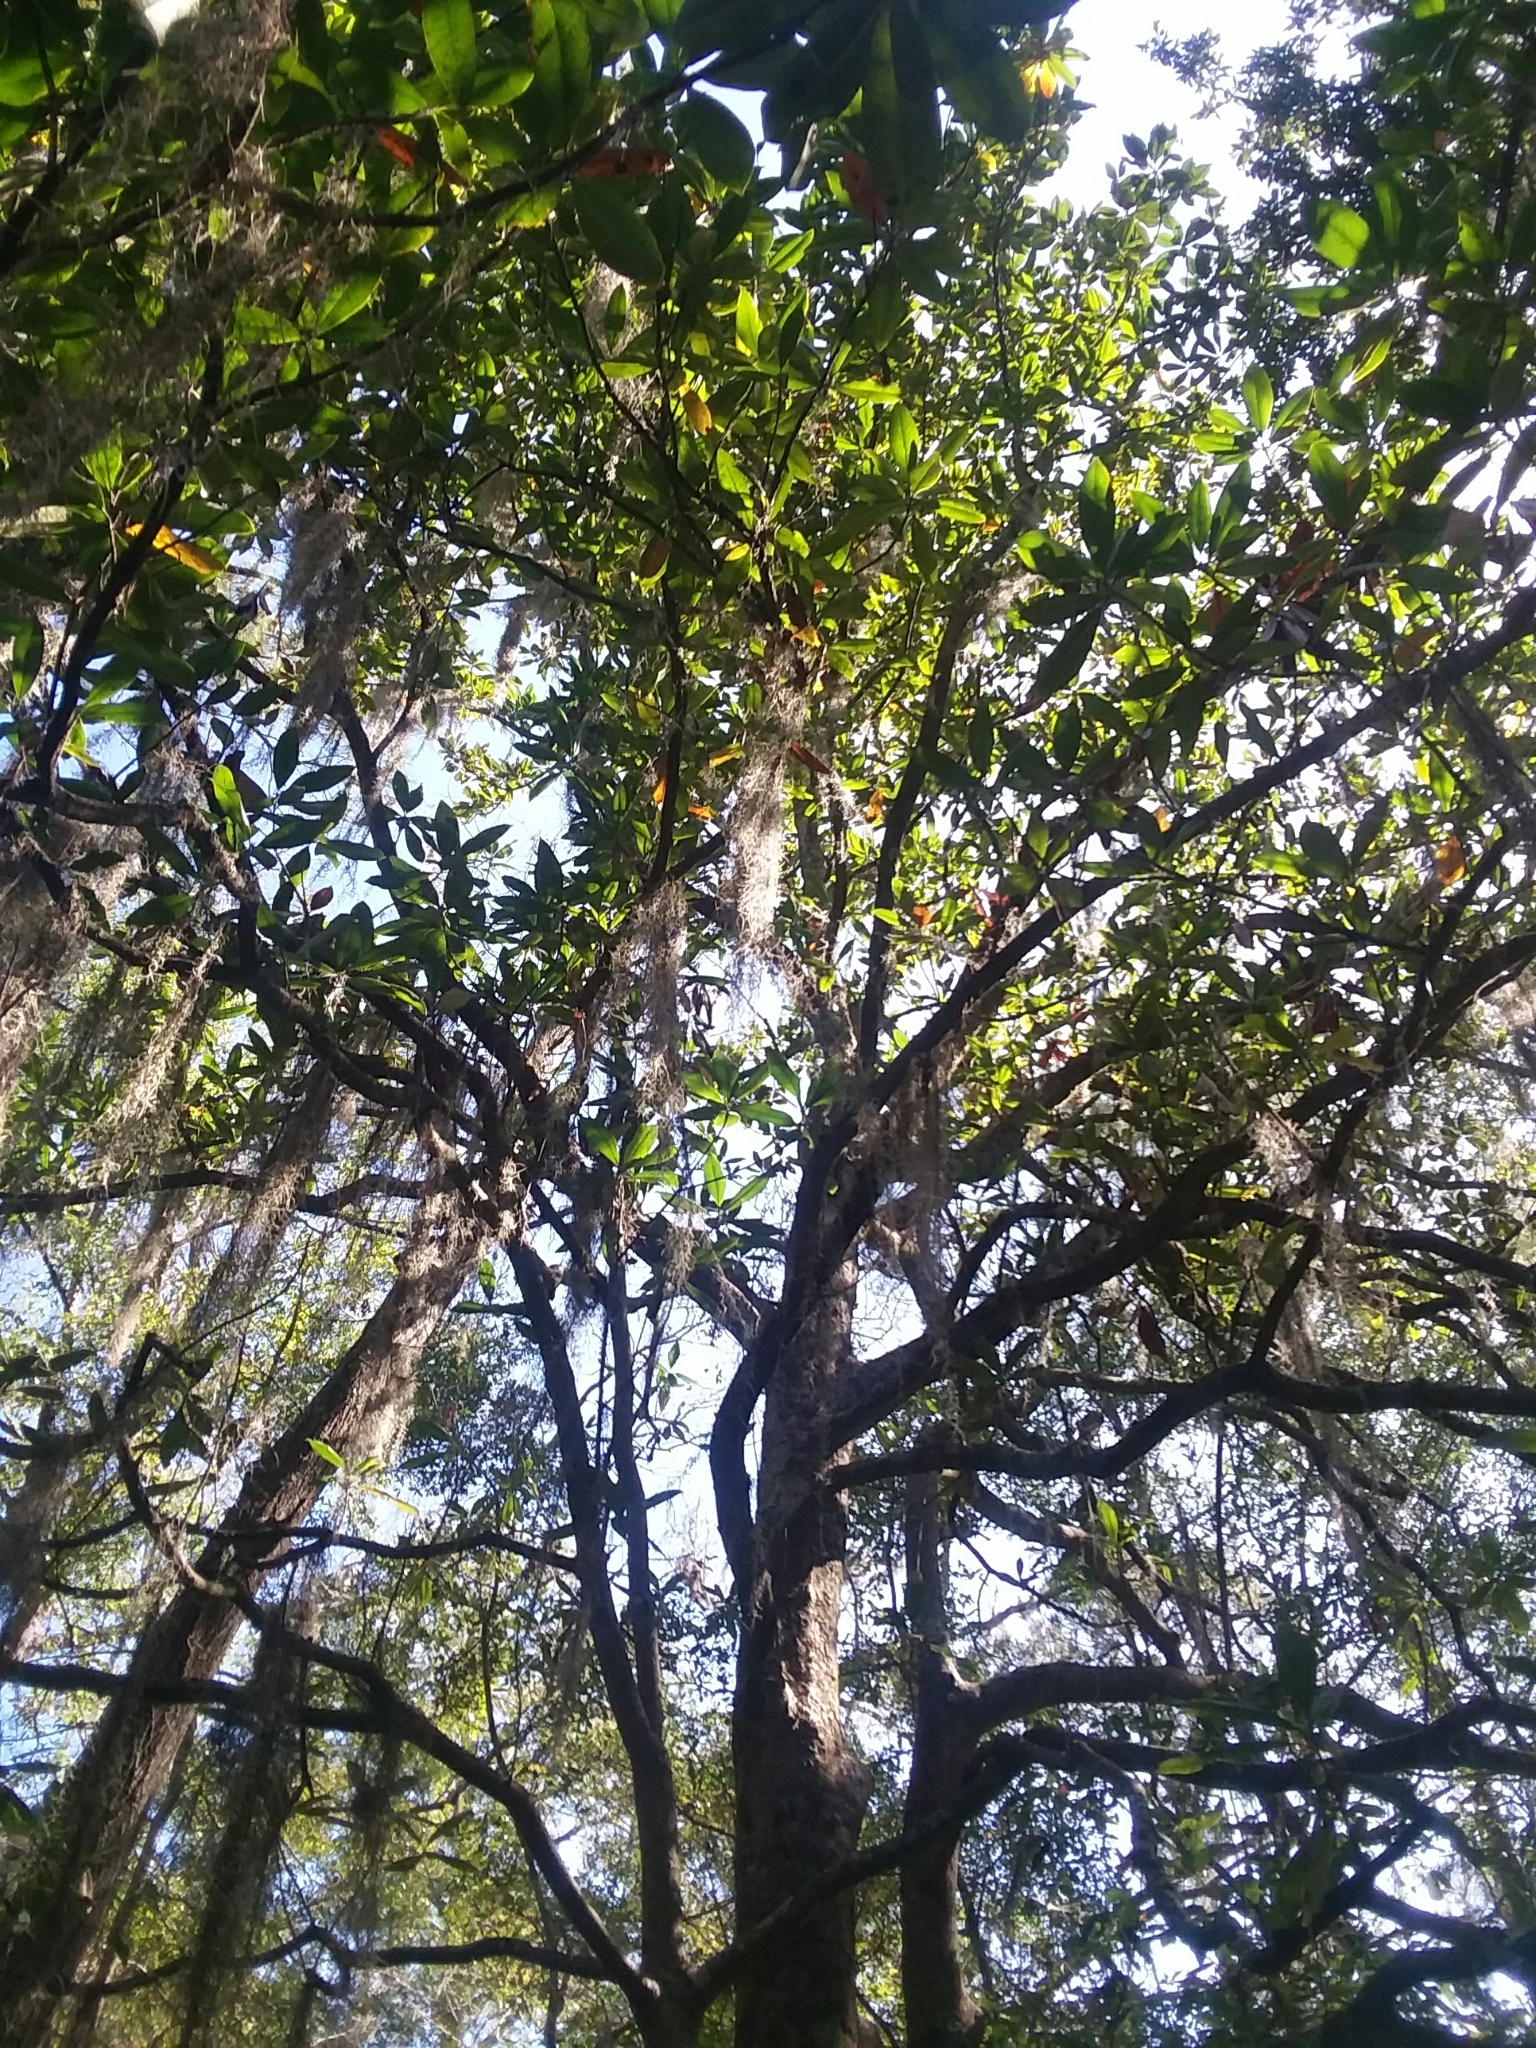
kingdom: Plantae
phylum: Tracheophyta
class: Magnoliopsida
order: Magnoliales
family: Magnoliaceae
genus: Magnolia
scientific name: Magnolia grandiflora
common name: Southern magnolia
